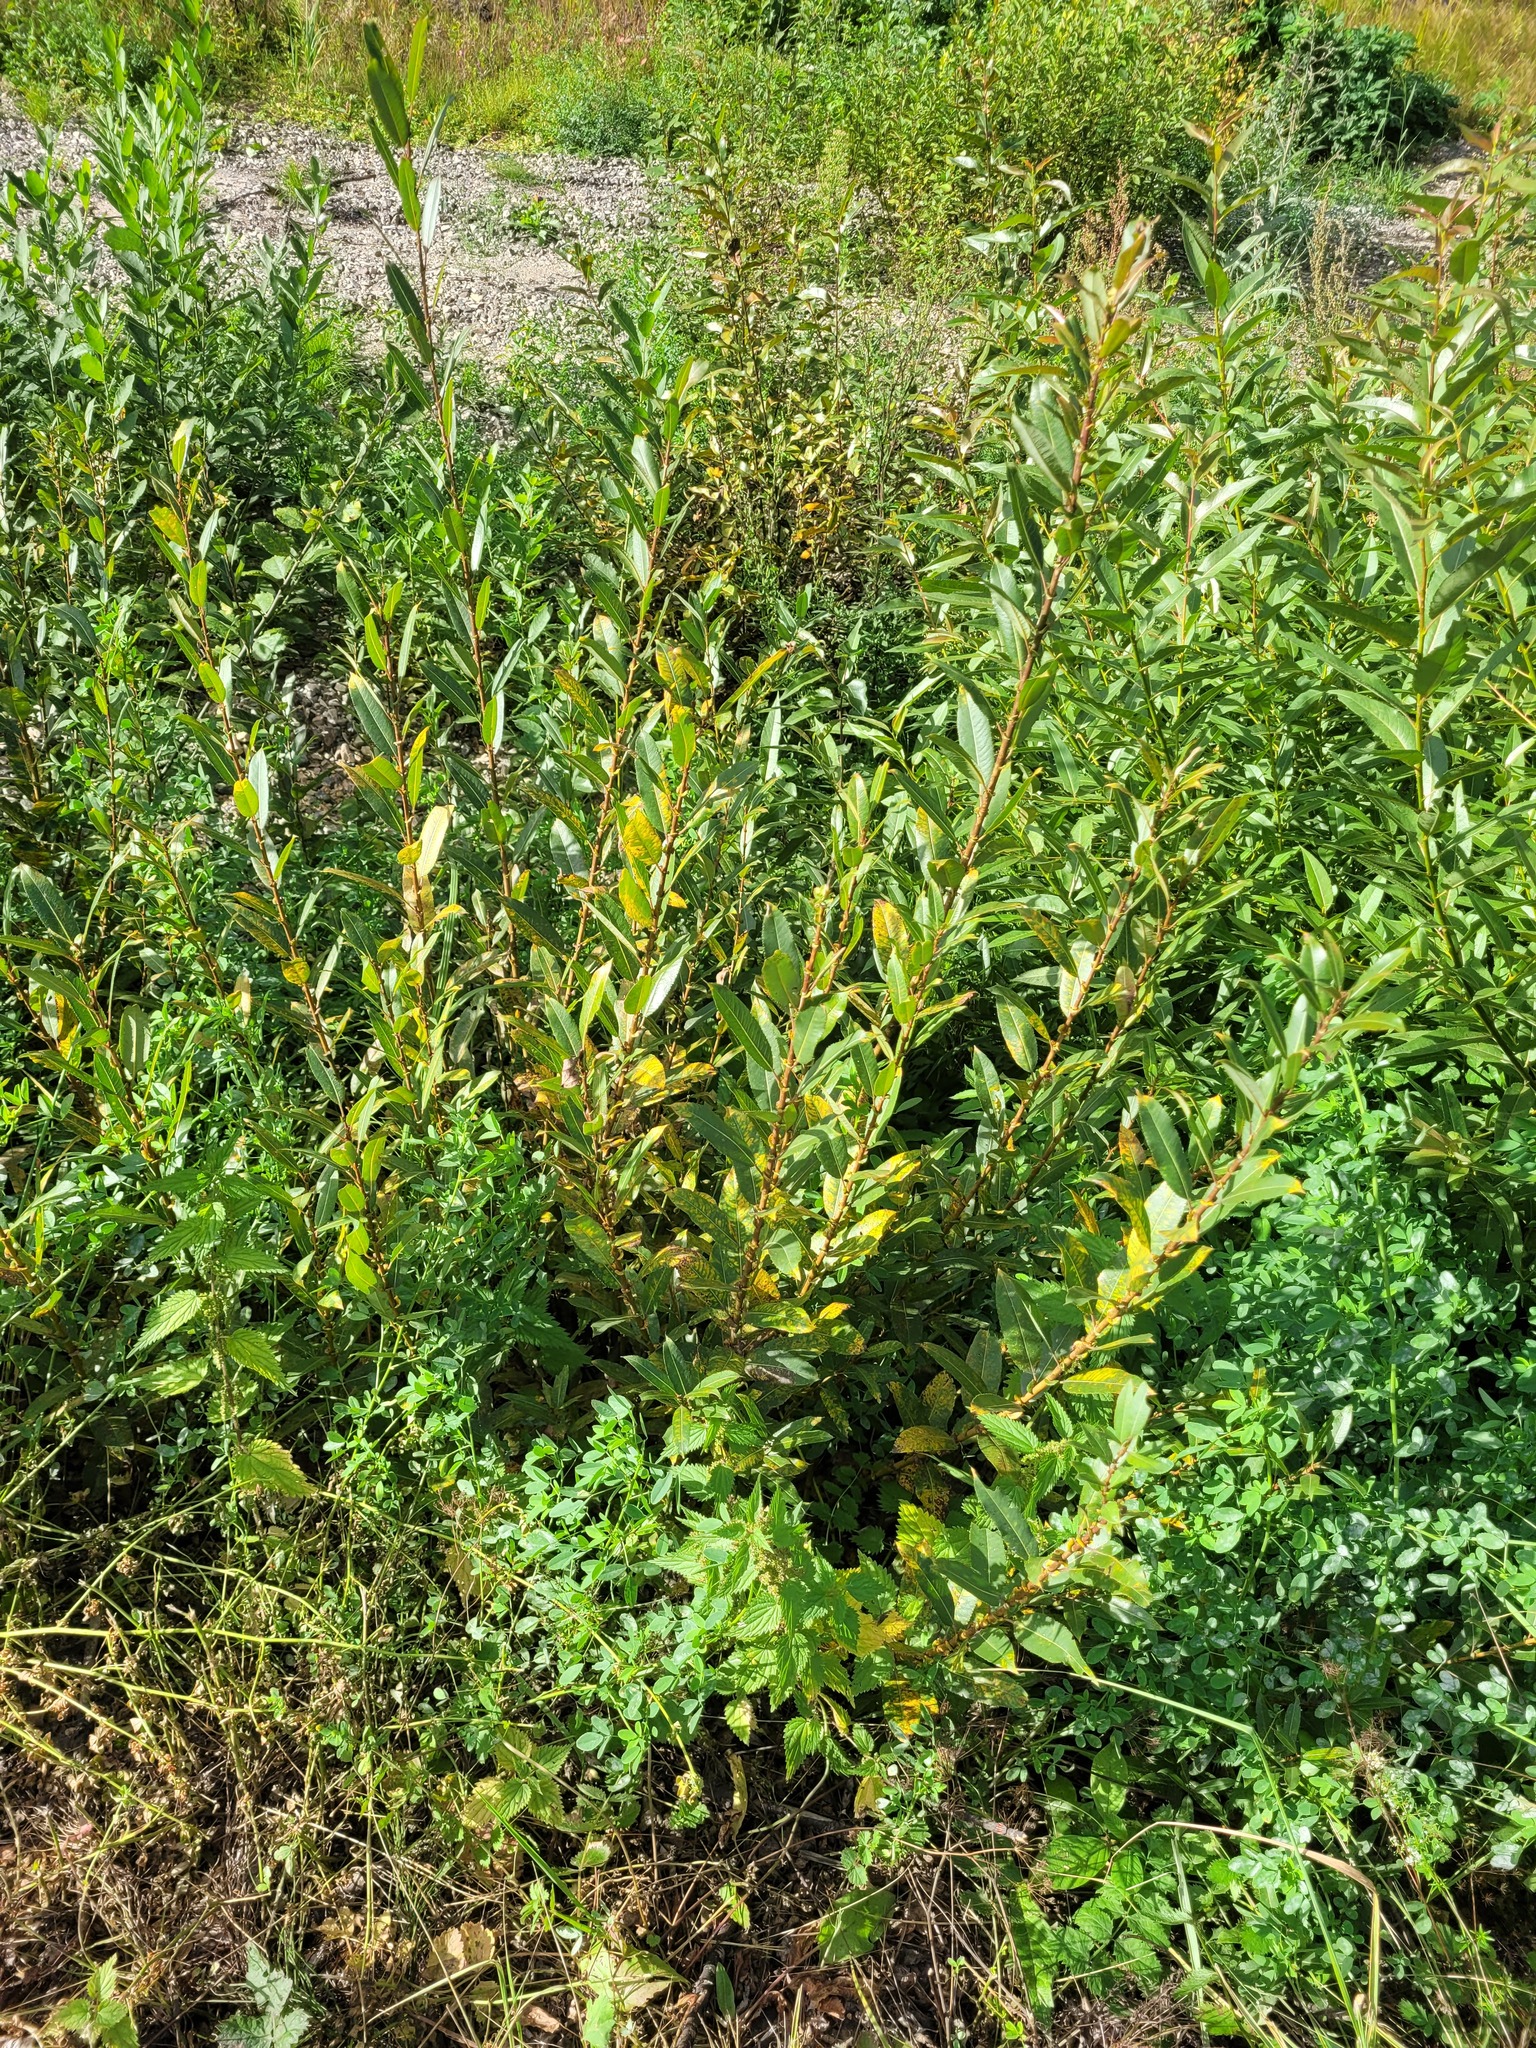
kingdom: Plantae
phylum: Tracheophyta
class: Magnoliopsida
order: Malpighiales
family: Salicaceae
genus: Salix
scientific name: Salix triandra
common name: Almond willow
